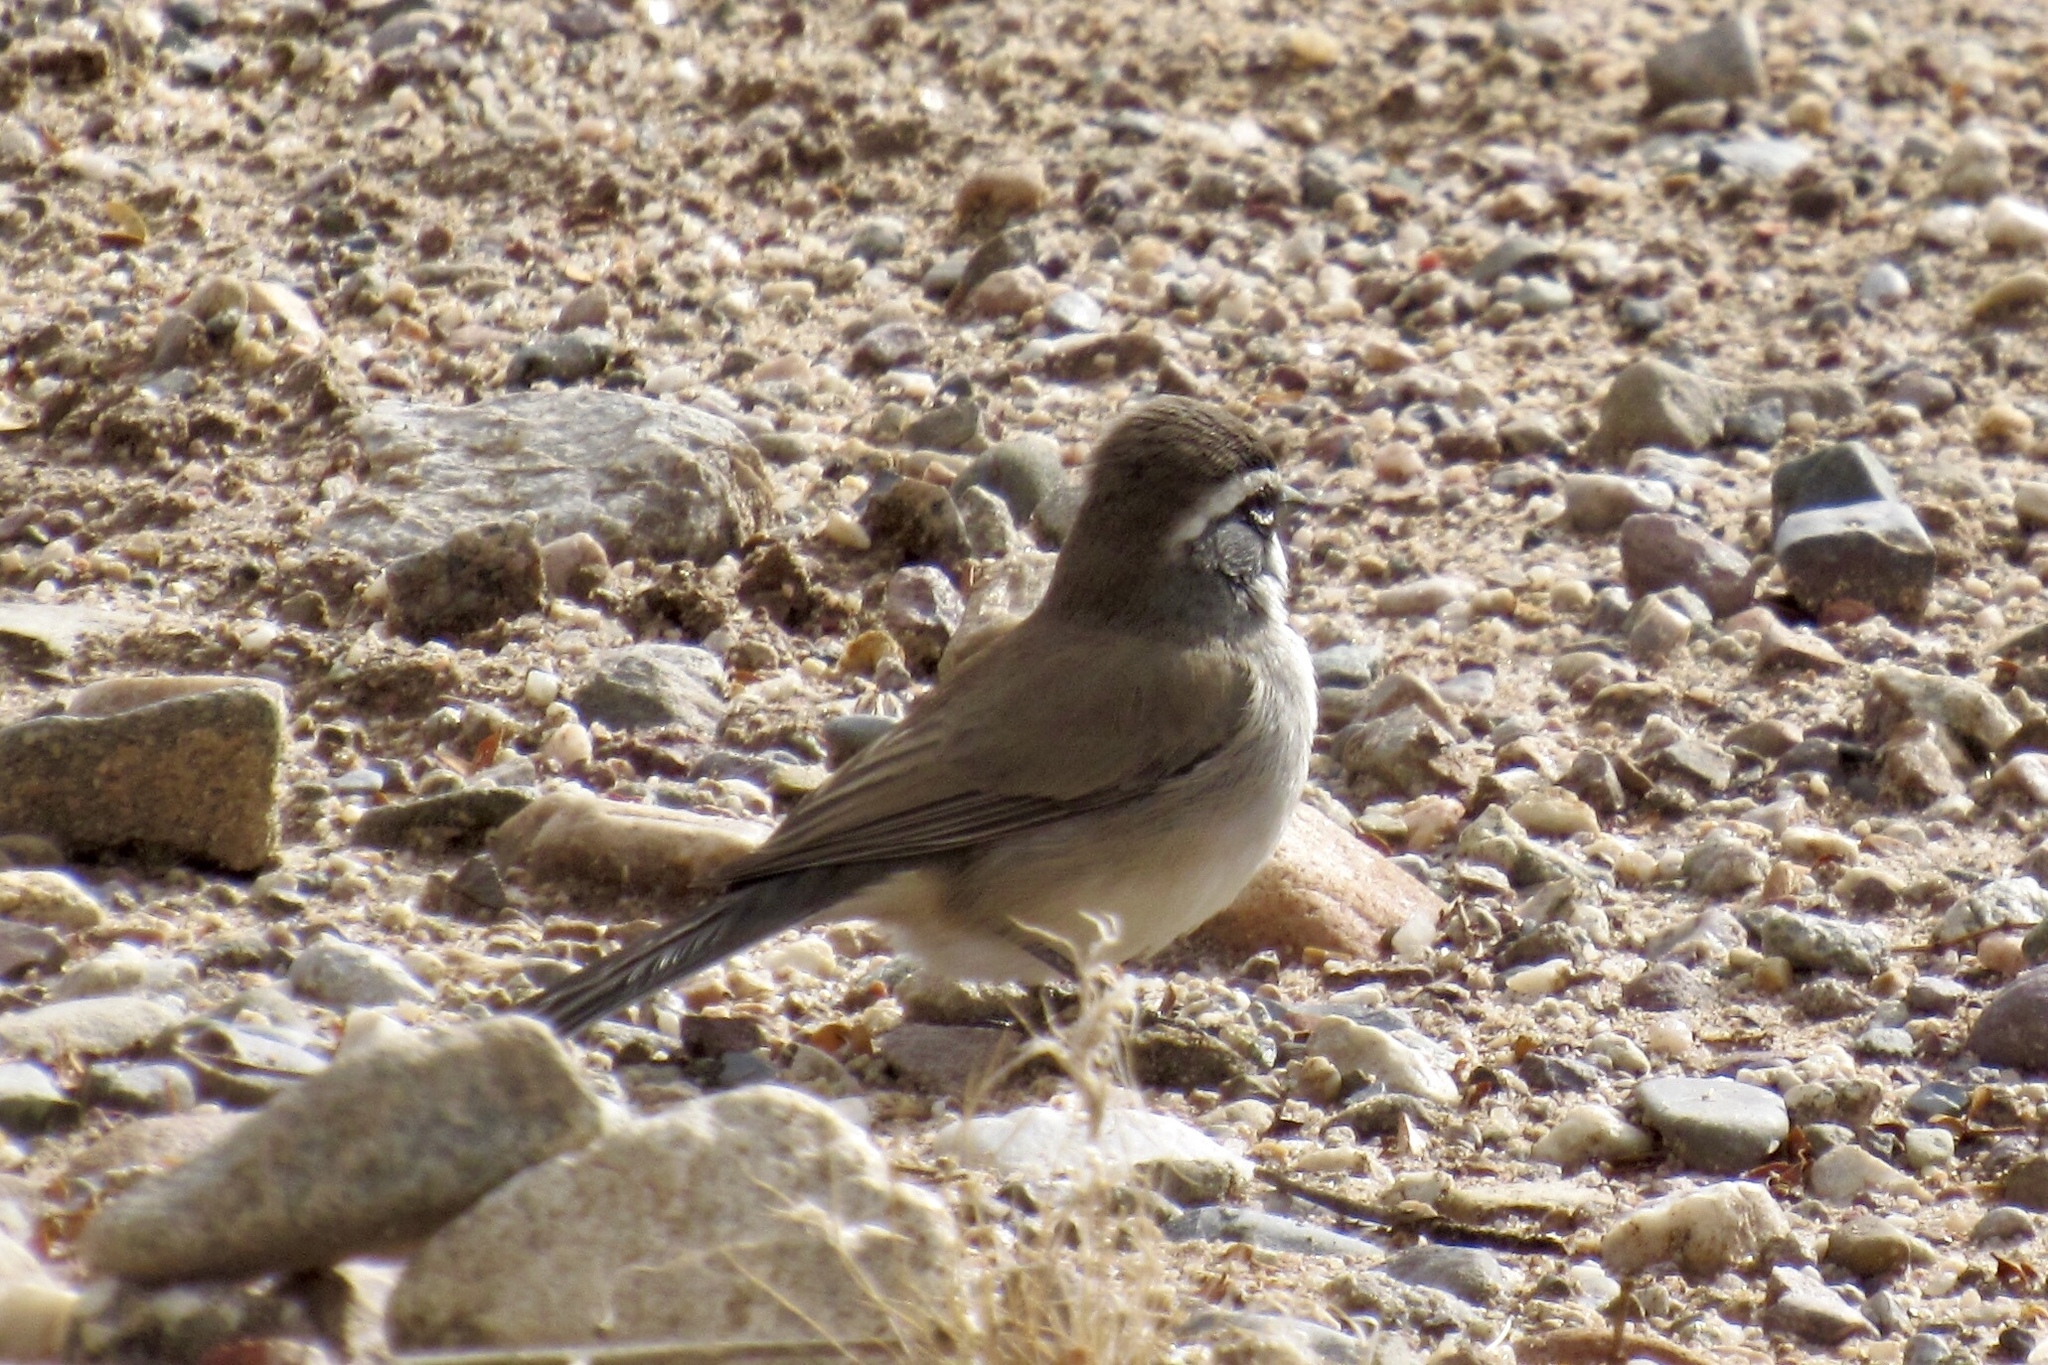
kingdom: Animalia
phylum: Chordata
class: Aves
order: Passeriformes
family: Passerellidae
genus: Amphispiza
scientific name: Amphispiza bilineata
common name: Black-throated sparrow
